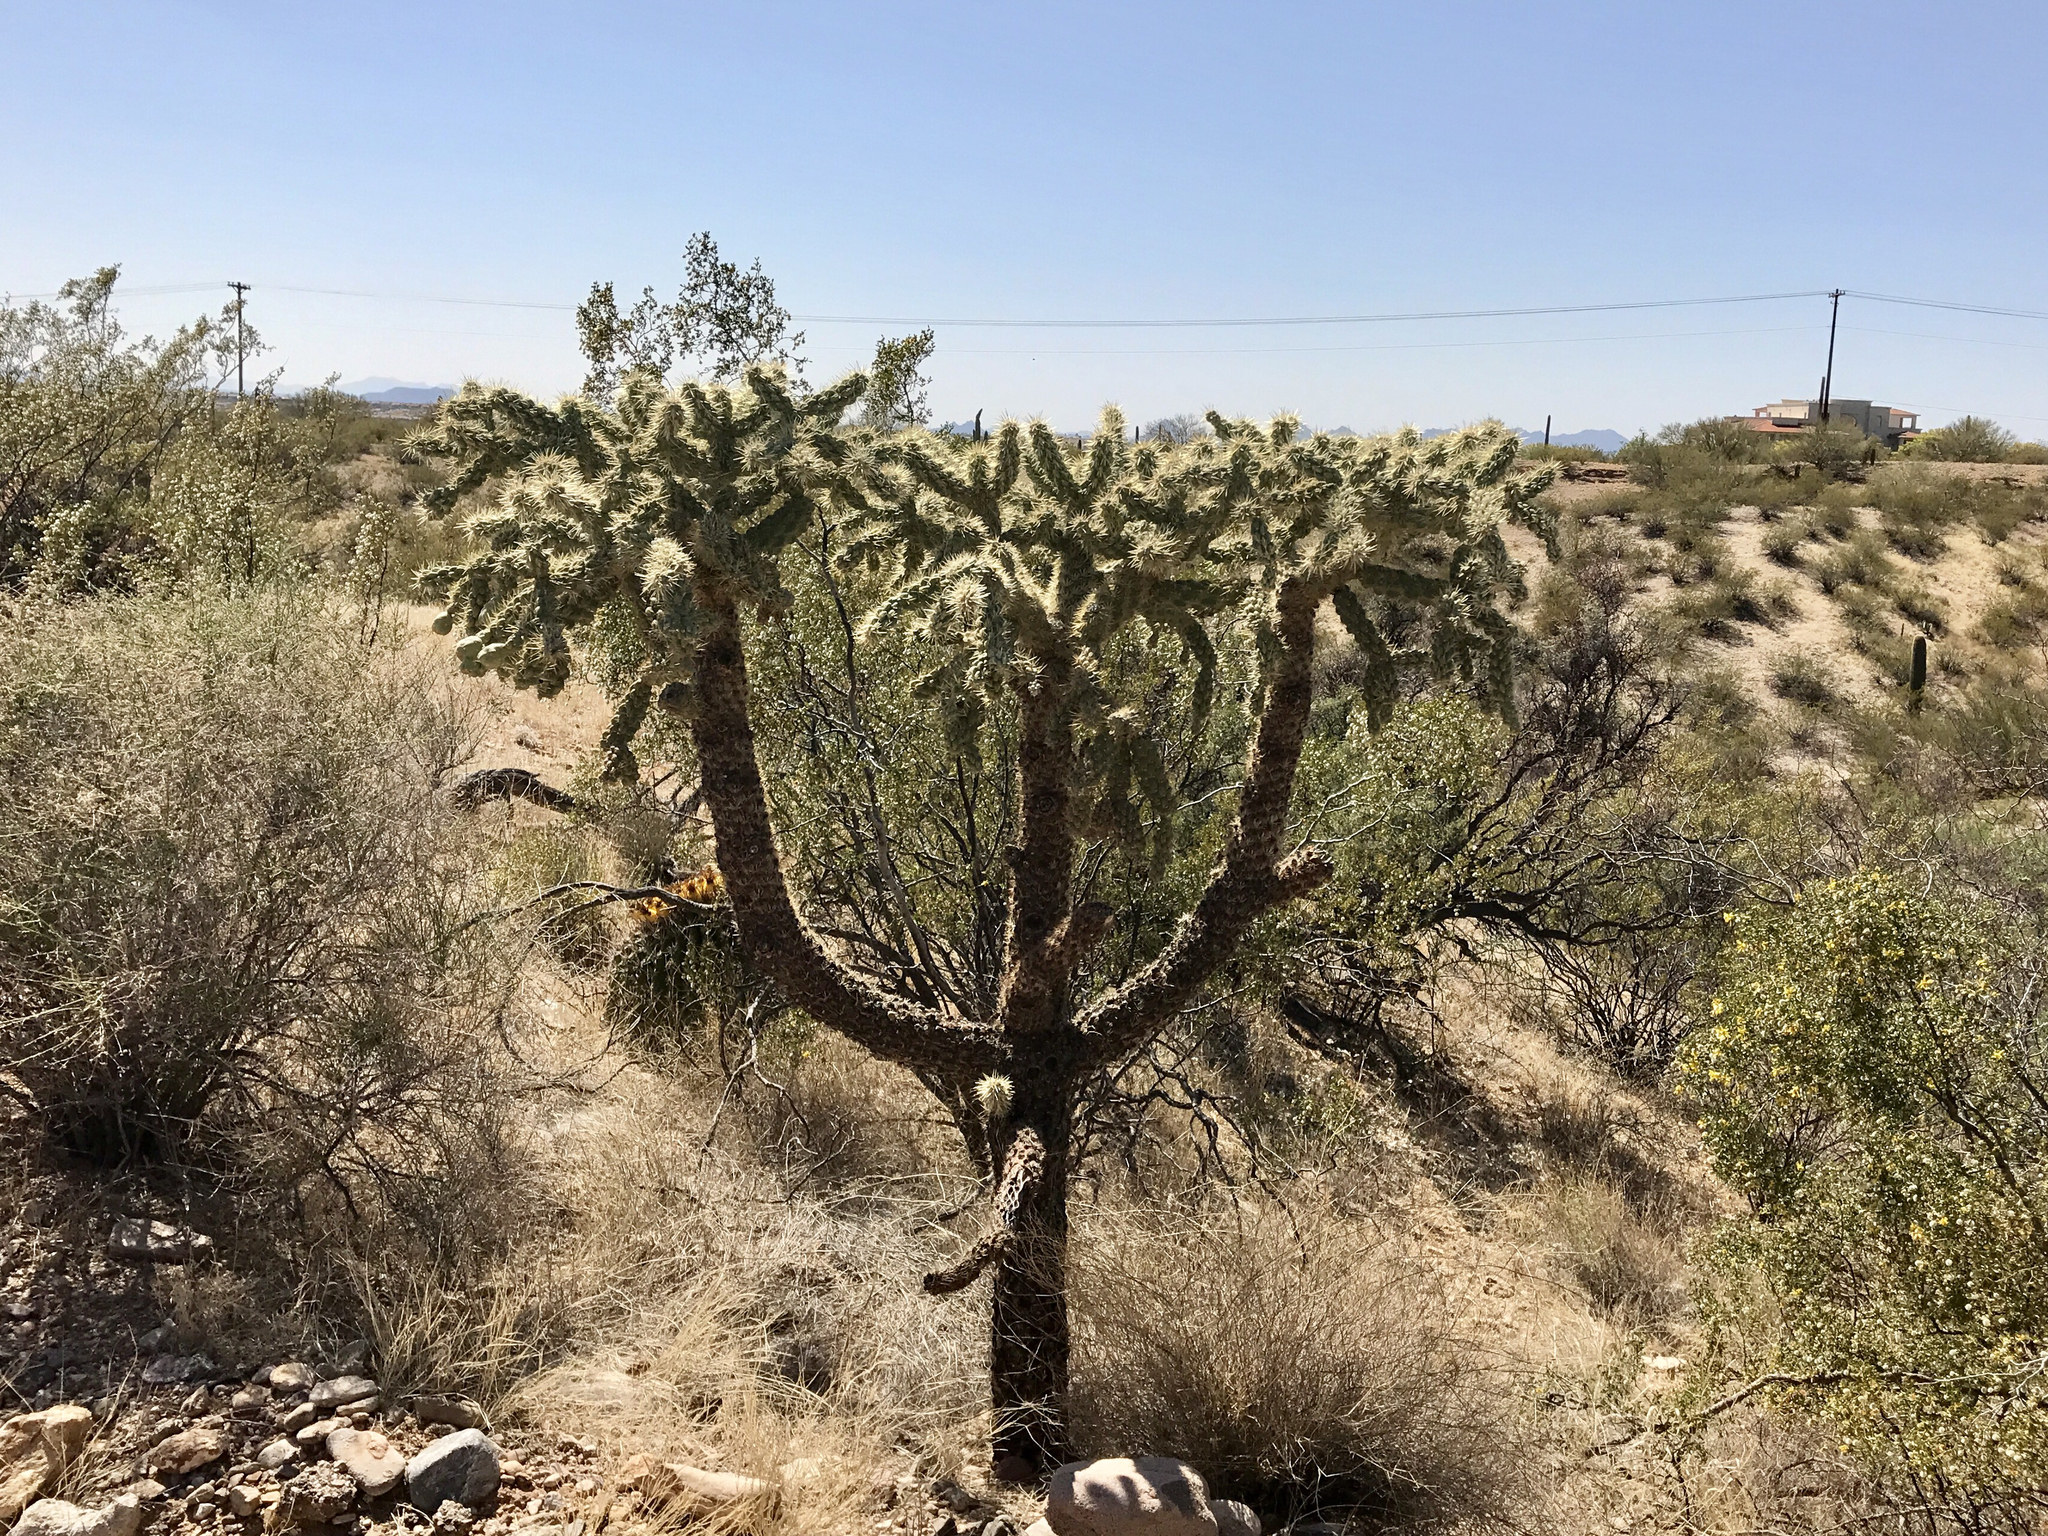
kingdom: Plantae
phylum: Tracheophyta
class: Magnoliopsida
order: Caryophyllales
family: Cactaceae
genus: Cylindropuntia
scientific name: Cylindropuntia fulgida
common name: Jumping cholla
